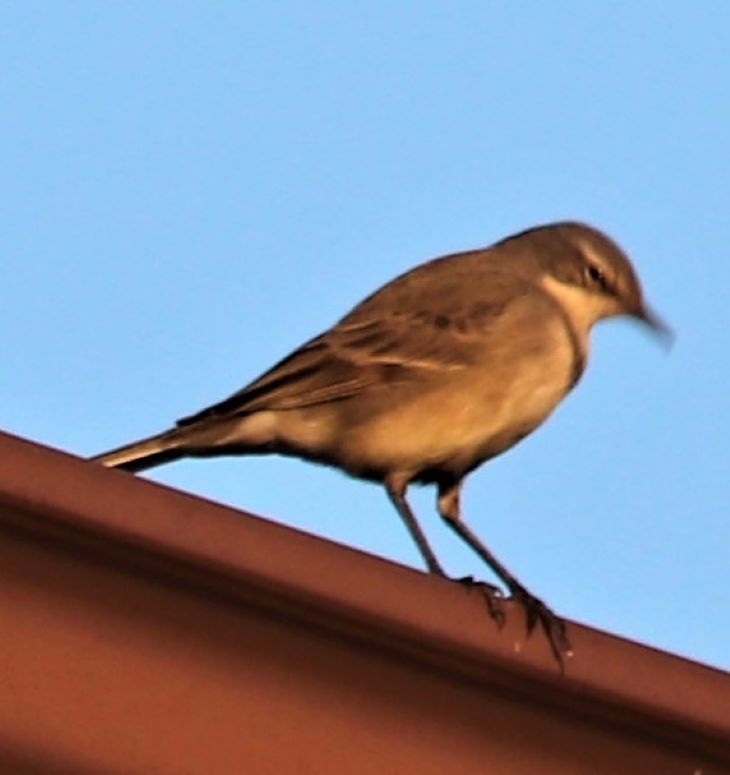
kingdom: Animalia
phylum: Chordata
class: Aves
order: Passeriformes
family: Motacillidae
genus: Motacilla
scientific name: Motacilla capensis
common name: Cape wagtail
